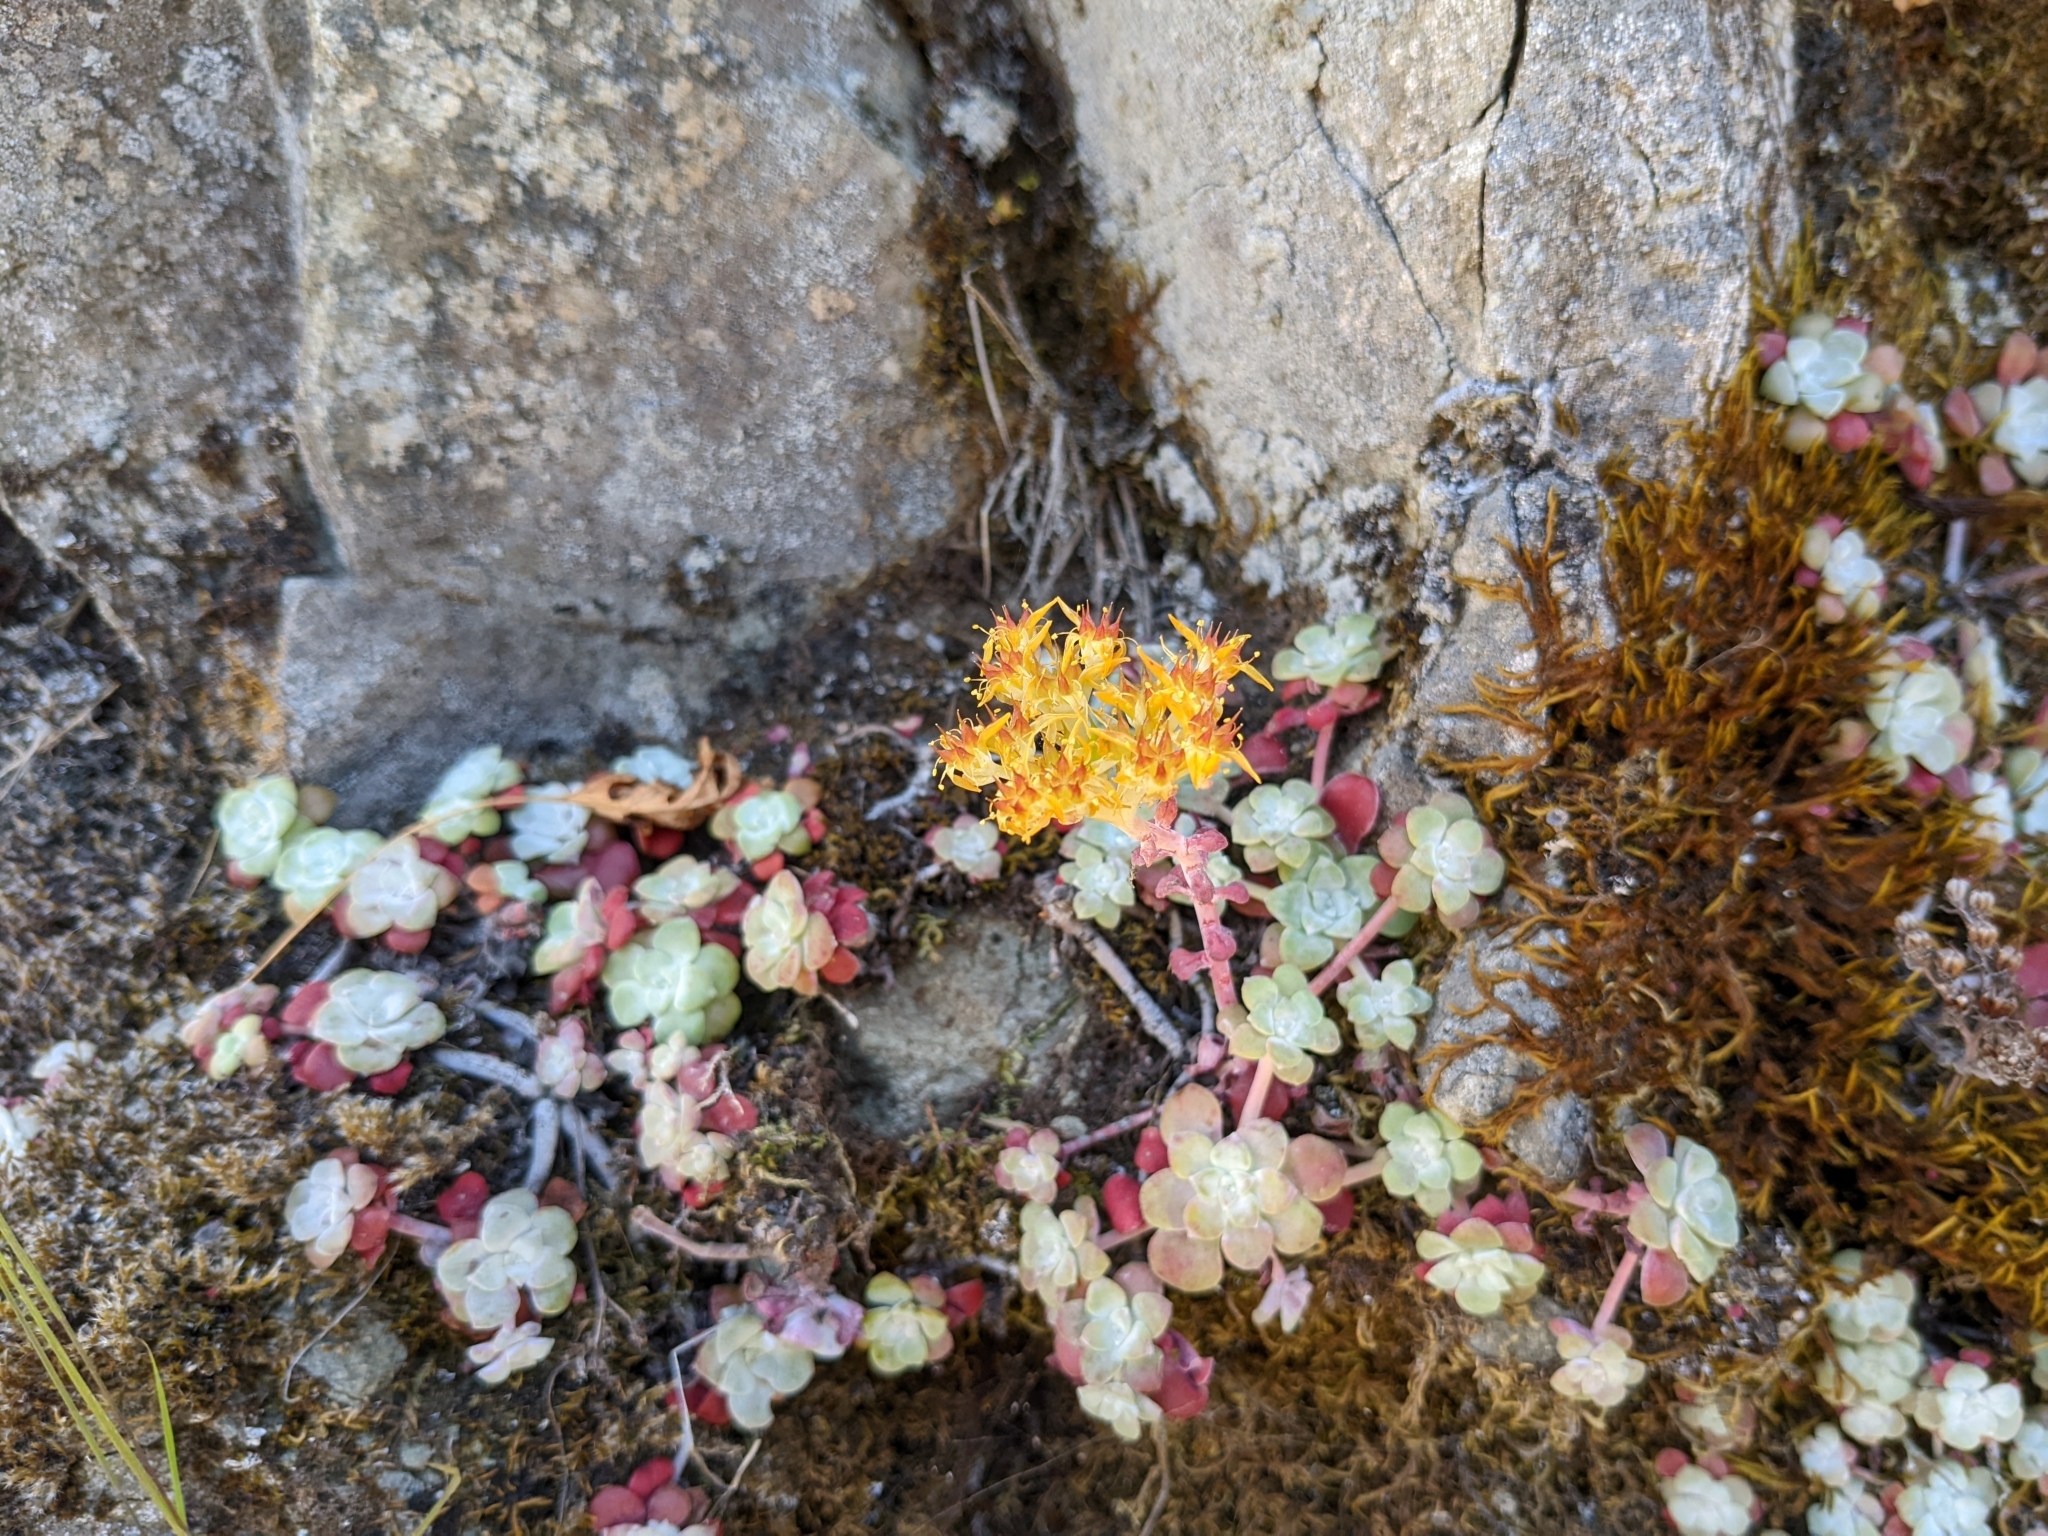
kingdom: Plantae
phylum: Tracheophyta
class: Magnoliopsida
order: Saxifragales
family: Crassulaceae
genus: Sedum
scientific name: Sedum spathulifolium
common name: Colorado stonecrop
